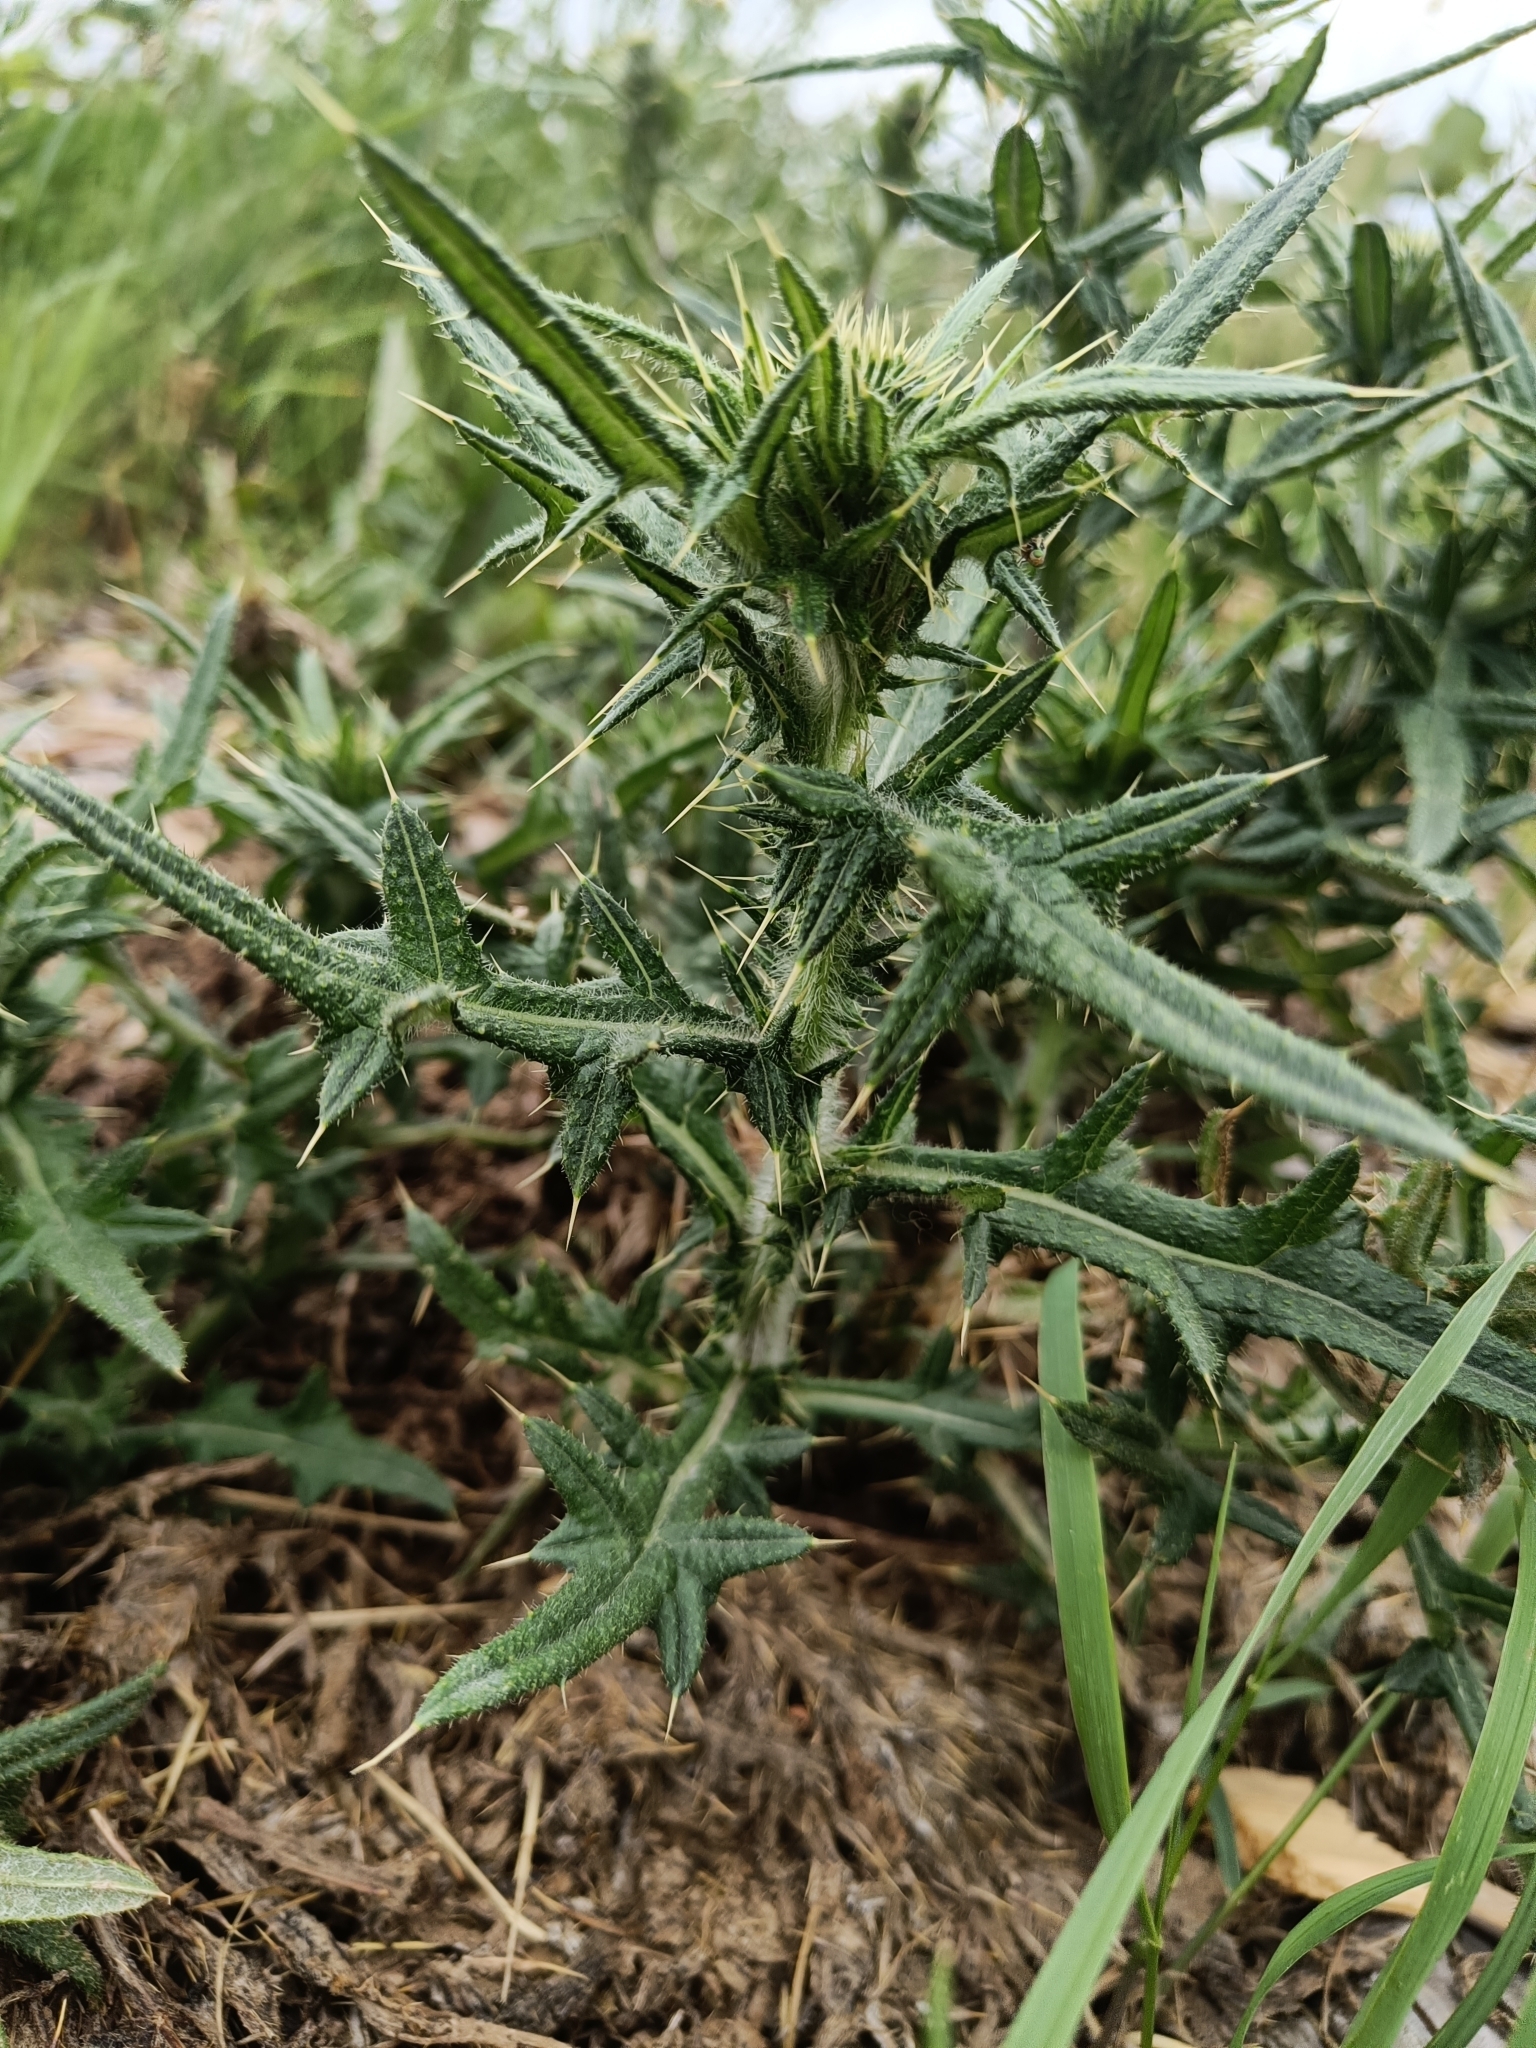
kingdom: Plantae
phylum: Tracheophyta
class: Magnoliopsida
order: Asterales
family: Asteraceae
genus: Cirsium
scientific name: Cirsium vulgare
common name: Bull thistle
